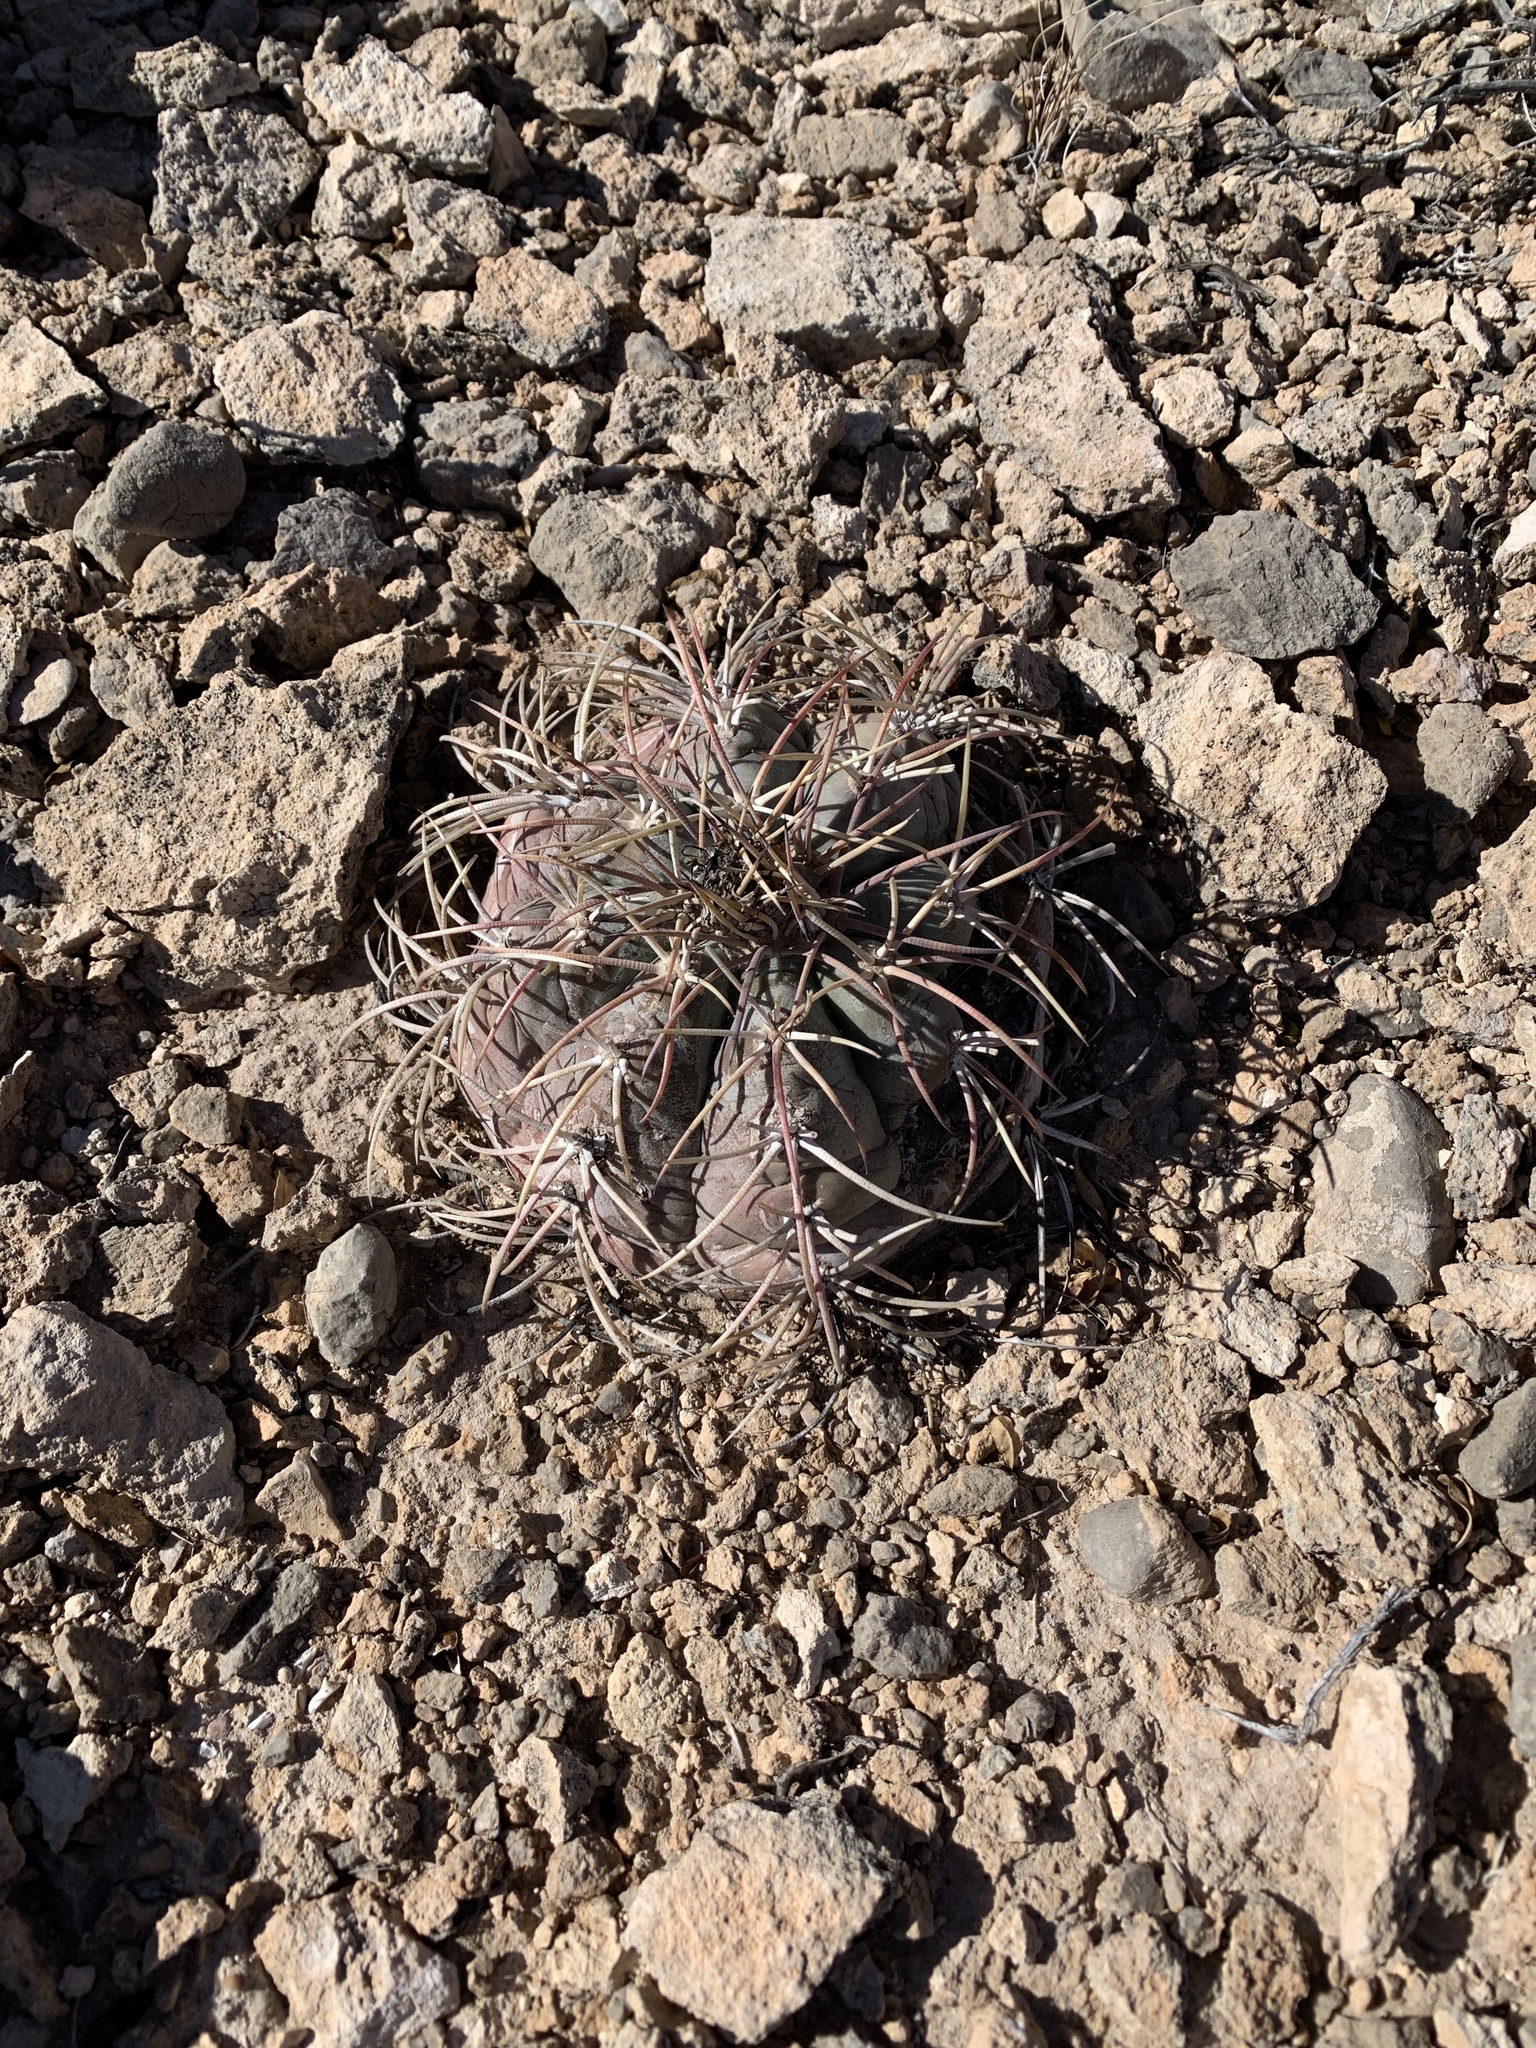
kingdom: Plantae
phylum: Tracheophyta
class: Magnoliopsida
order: Caryophyllales
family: Cactaceae
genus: Echinocactus
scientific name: Echinocactus horizonthalonius
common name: Devilshead
